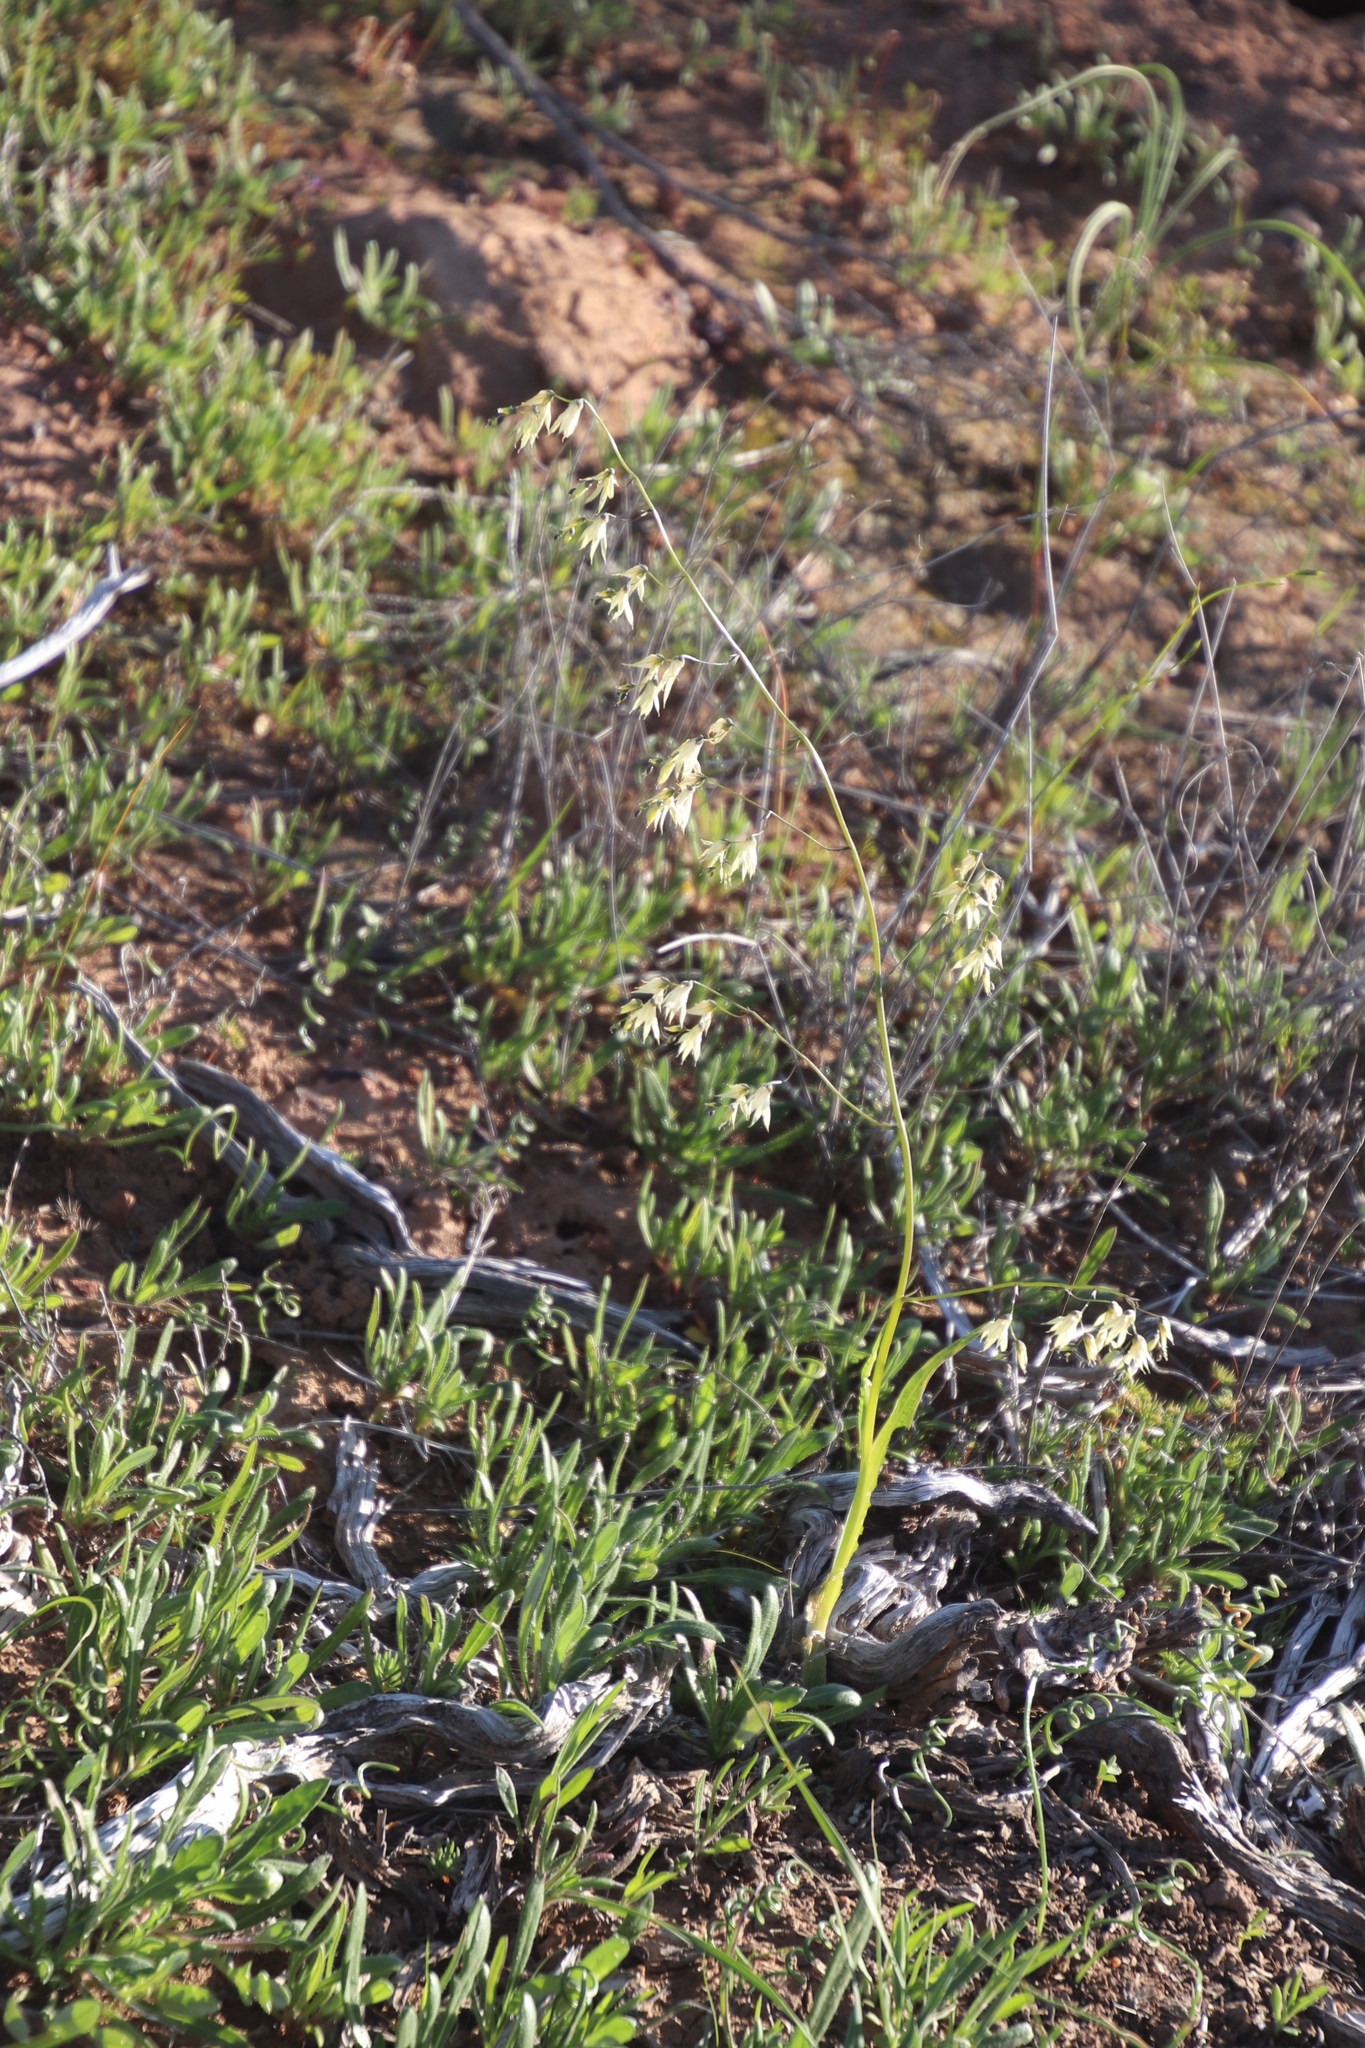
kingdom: Plantae
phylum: Tracheophyta
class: Liliopsida
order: Asparagales
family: Iridaceae
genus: Melasphaerula
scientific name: Melasphaerula graminea
